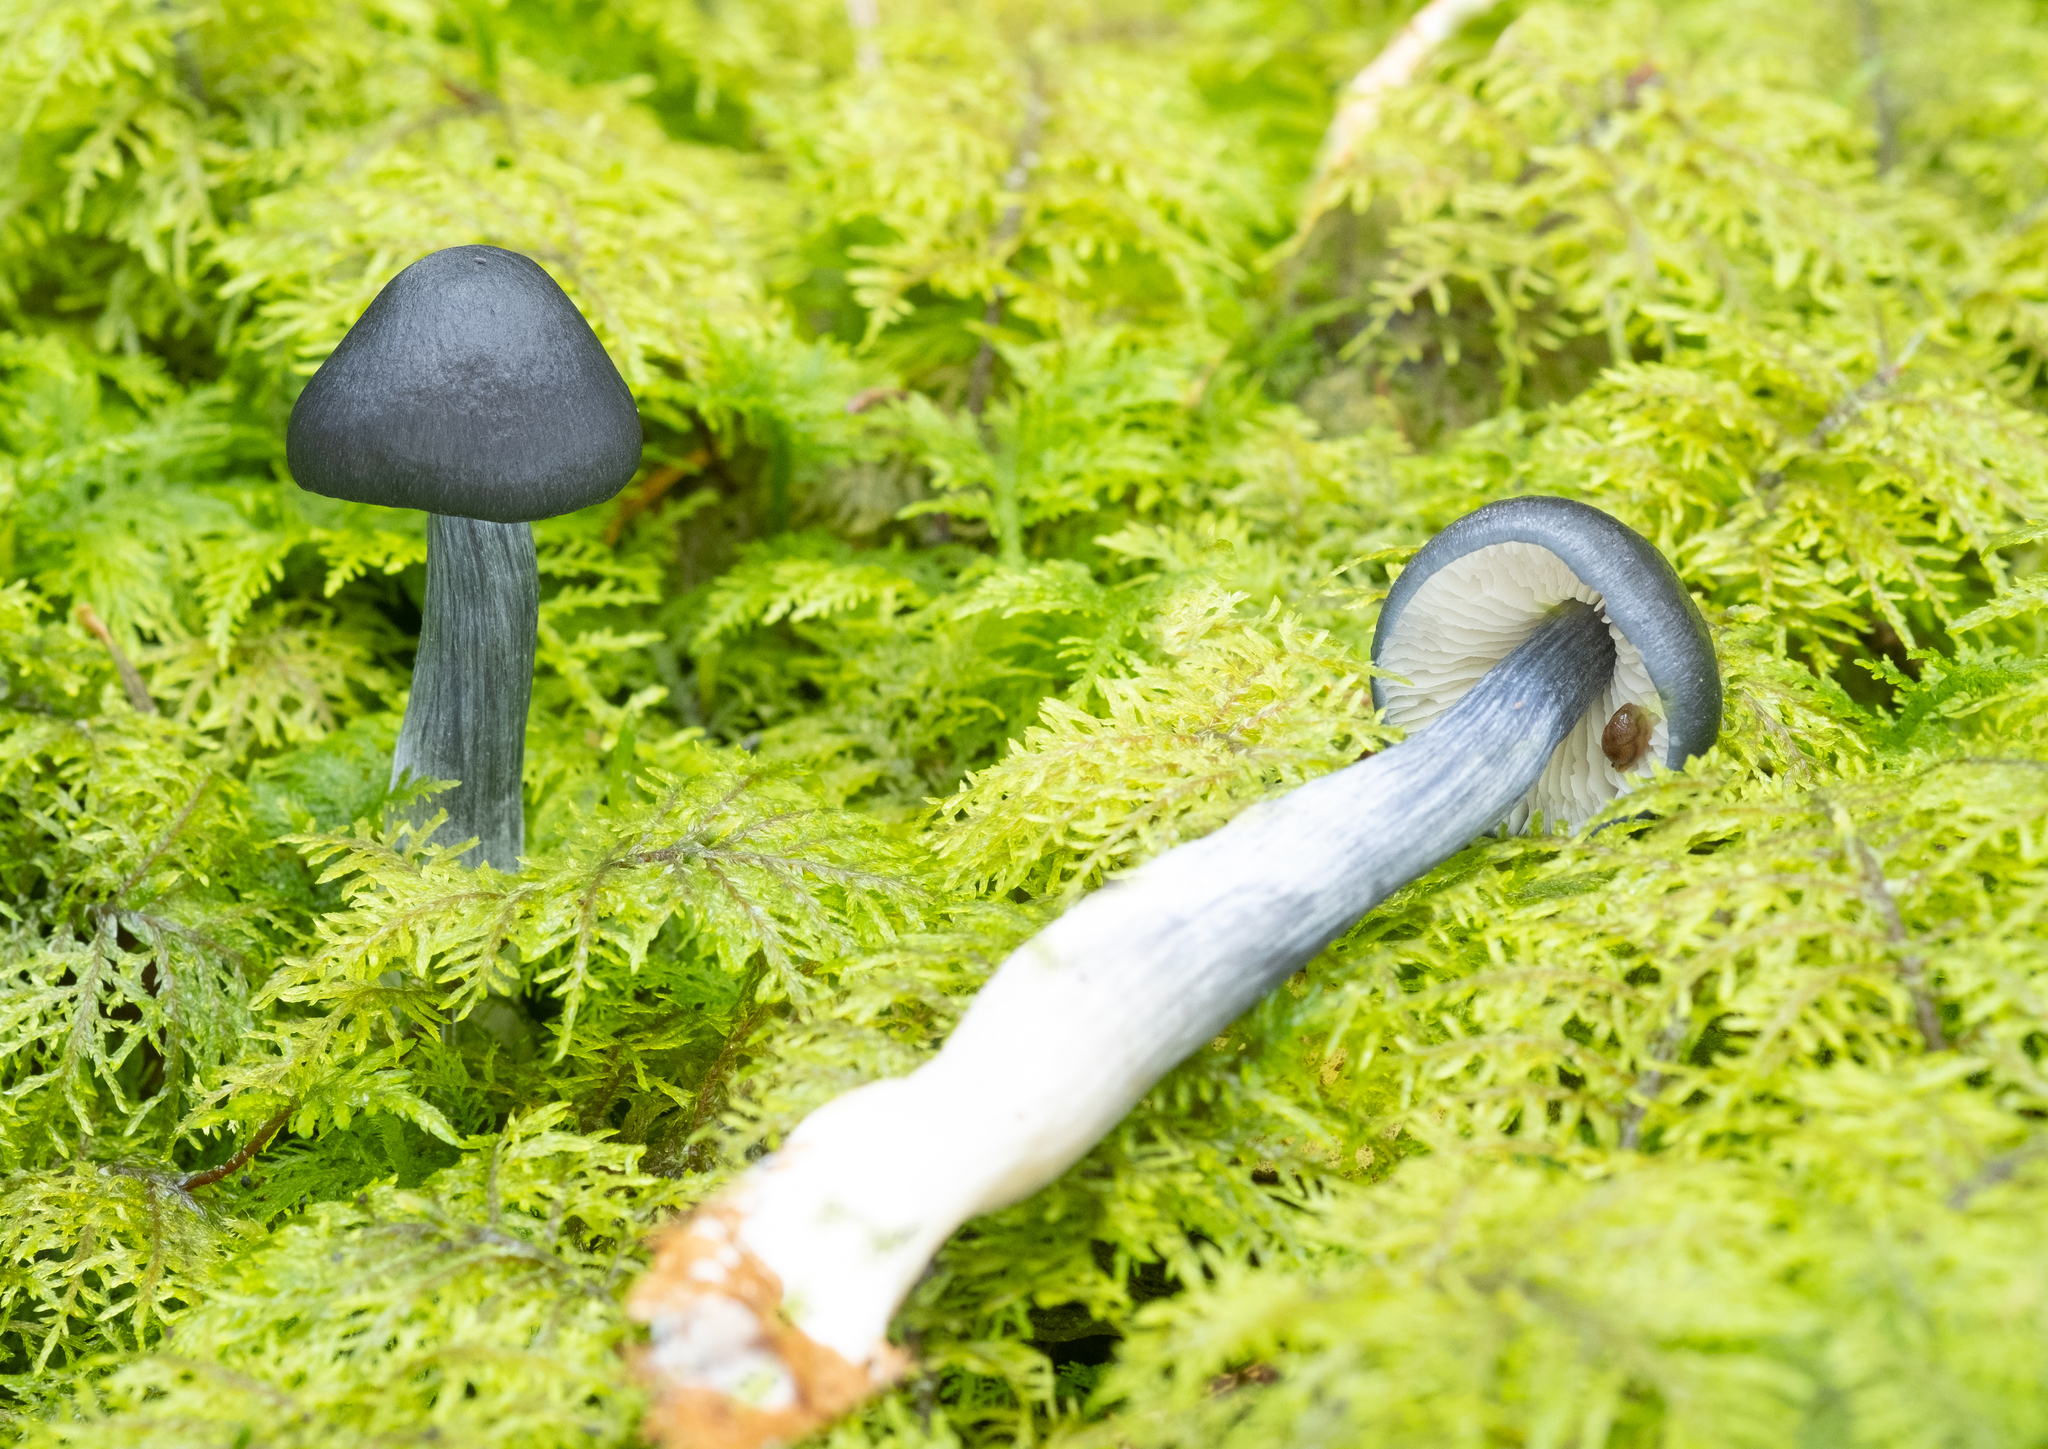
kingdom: Fungi
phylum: Basidiomycota
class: Agaricomycetes
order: Agaricales
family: Entolomataceae
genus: Entocybe
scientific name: Entocybe nitida
